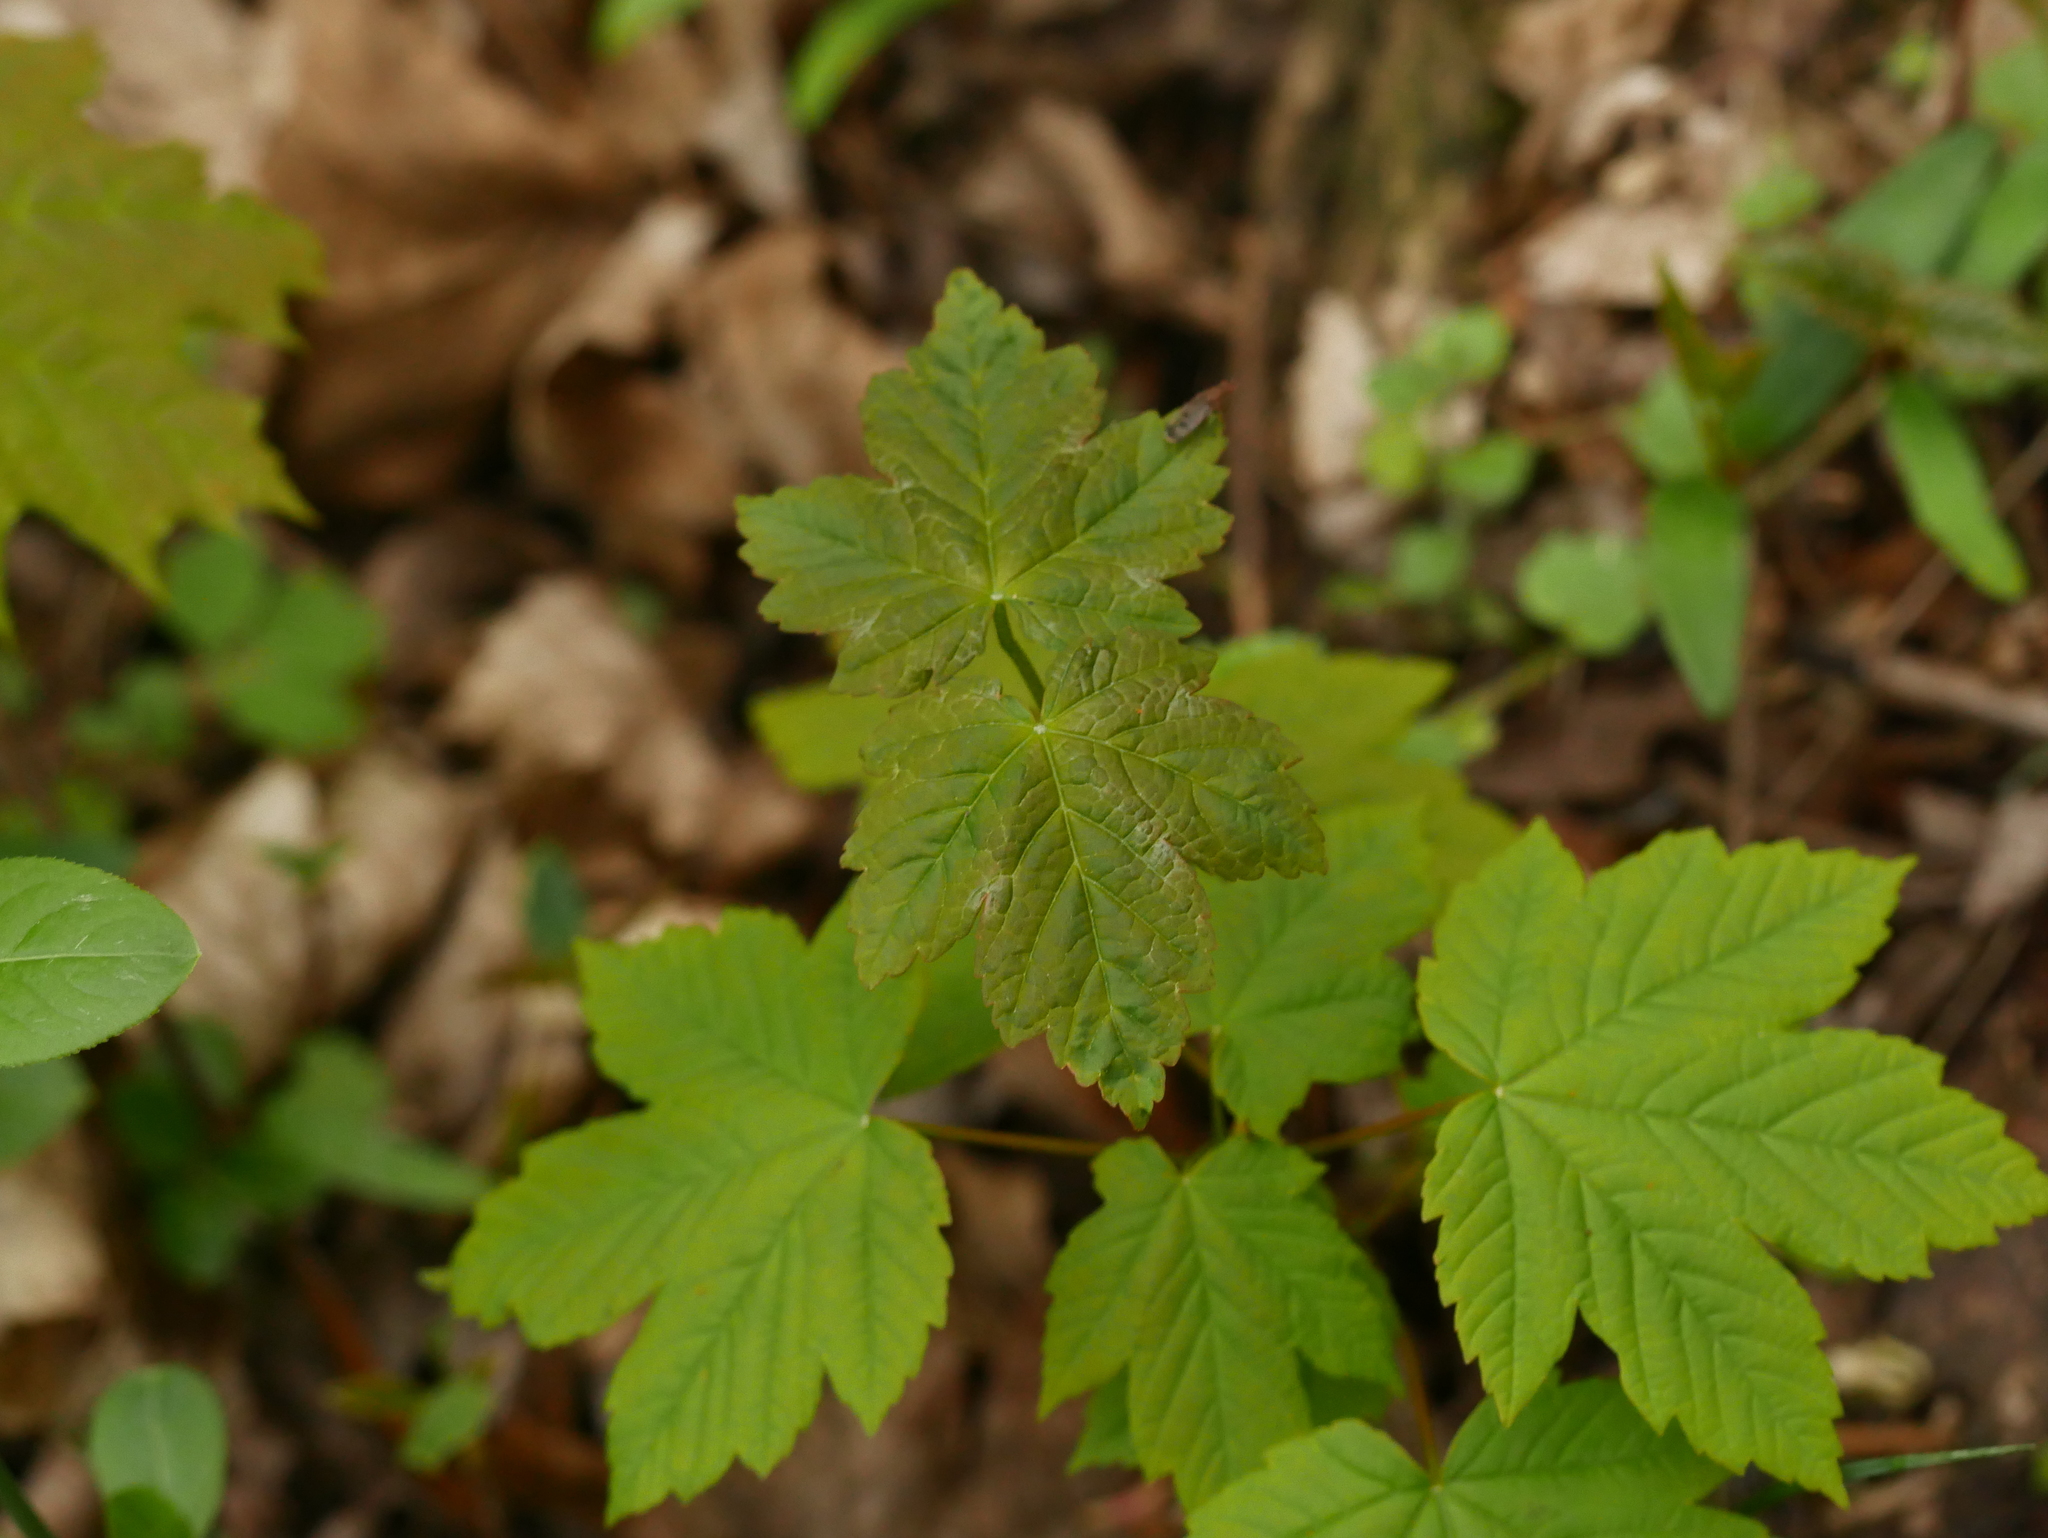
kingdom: Plantae
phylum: Tracheophyta
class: Magnoliopsida
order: Sapindales
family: Sapindaceae
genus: Acer
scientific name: Acer pseudoplatanus
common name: Sycamore
